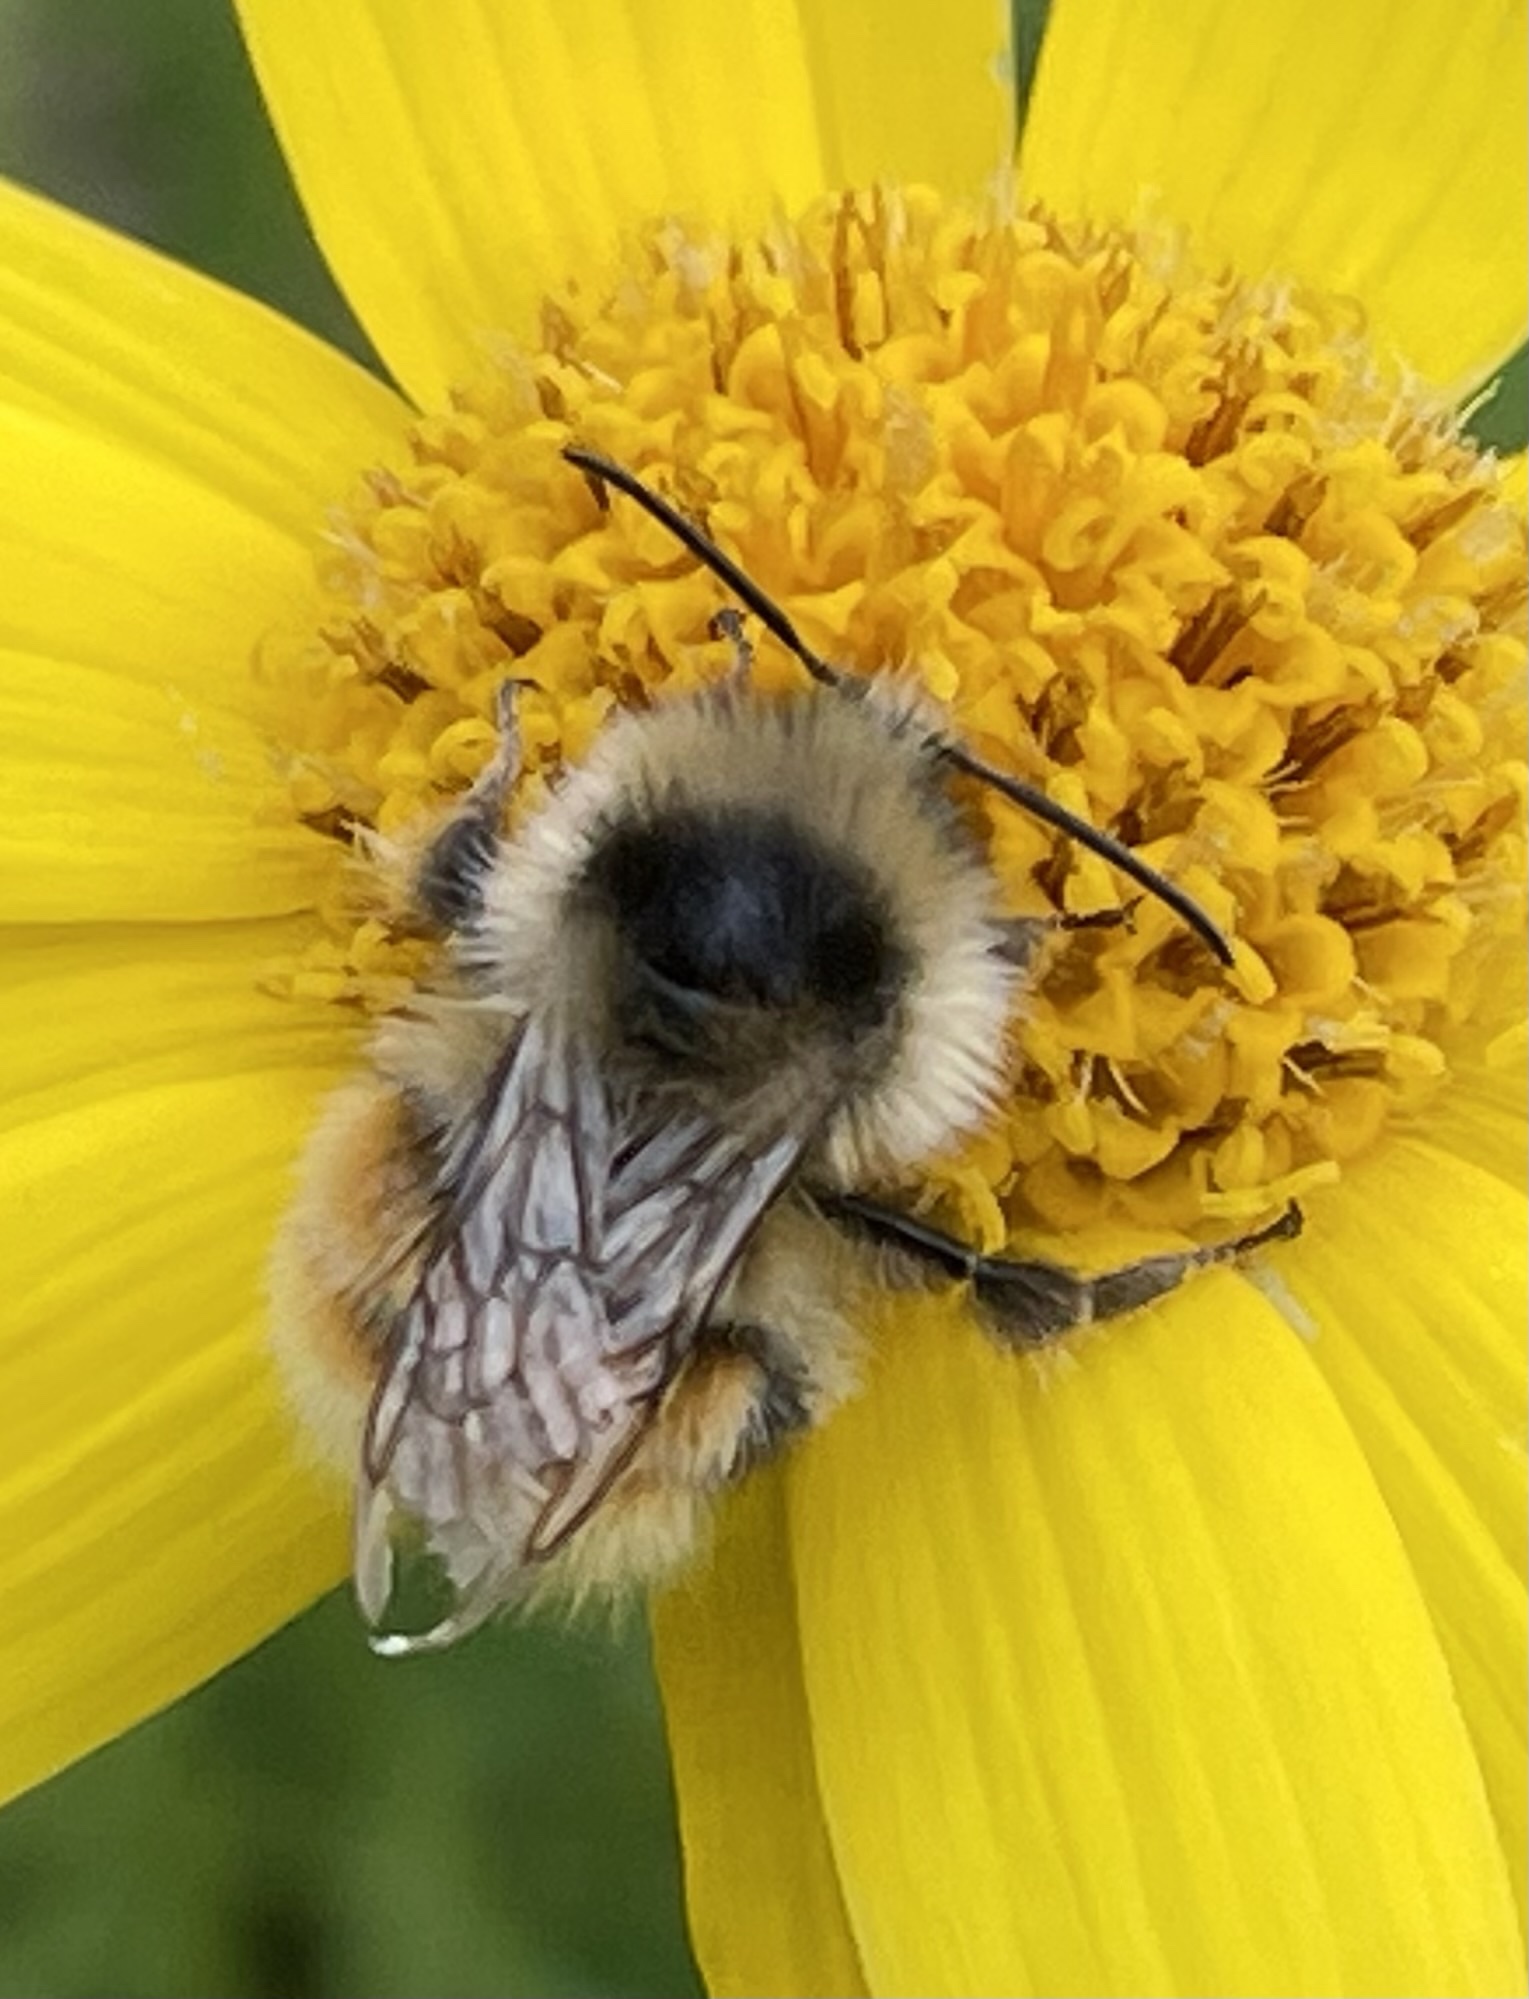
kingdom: Animalia
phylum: Arthropoda
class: Insecta
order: Hymenoptera
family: Apidae
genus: Bombus
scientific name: Bombus sylvicola
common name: Forest bumble bee
